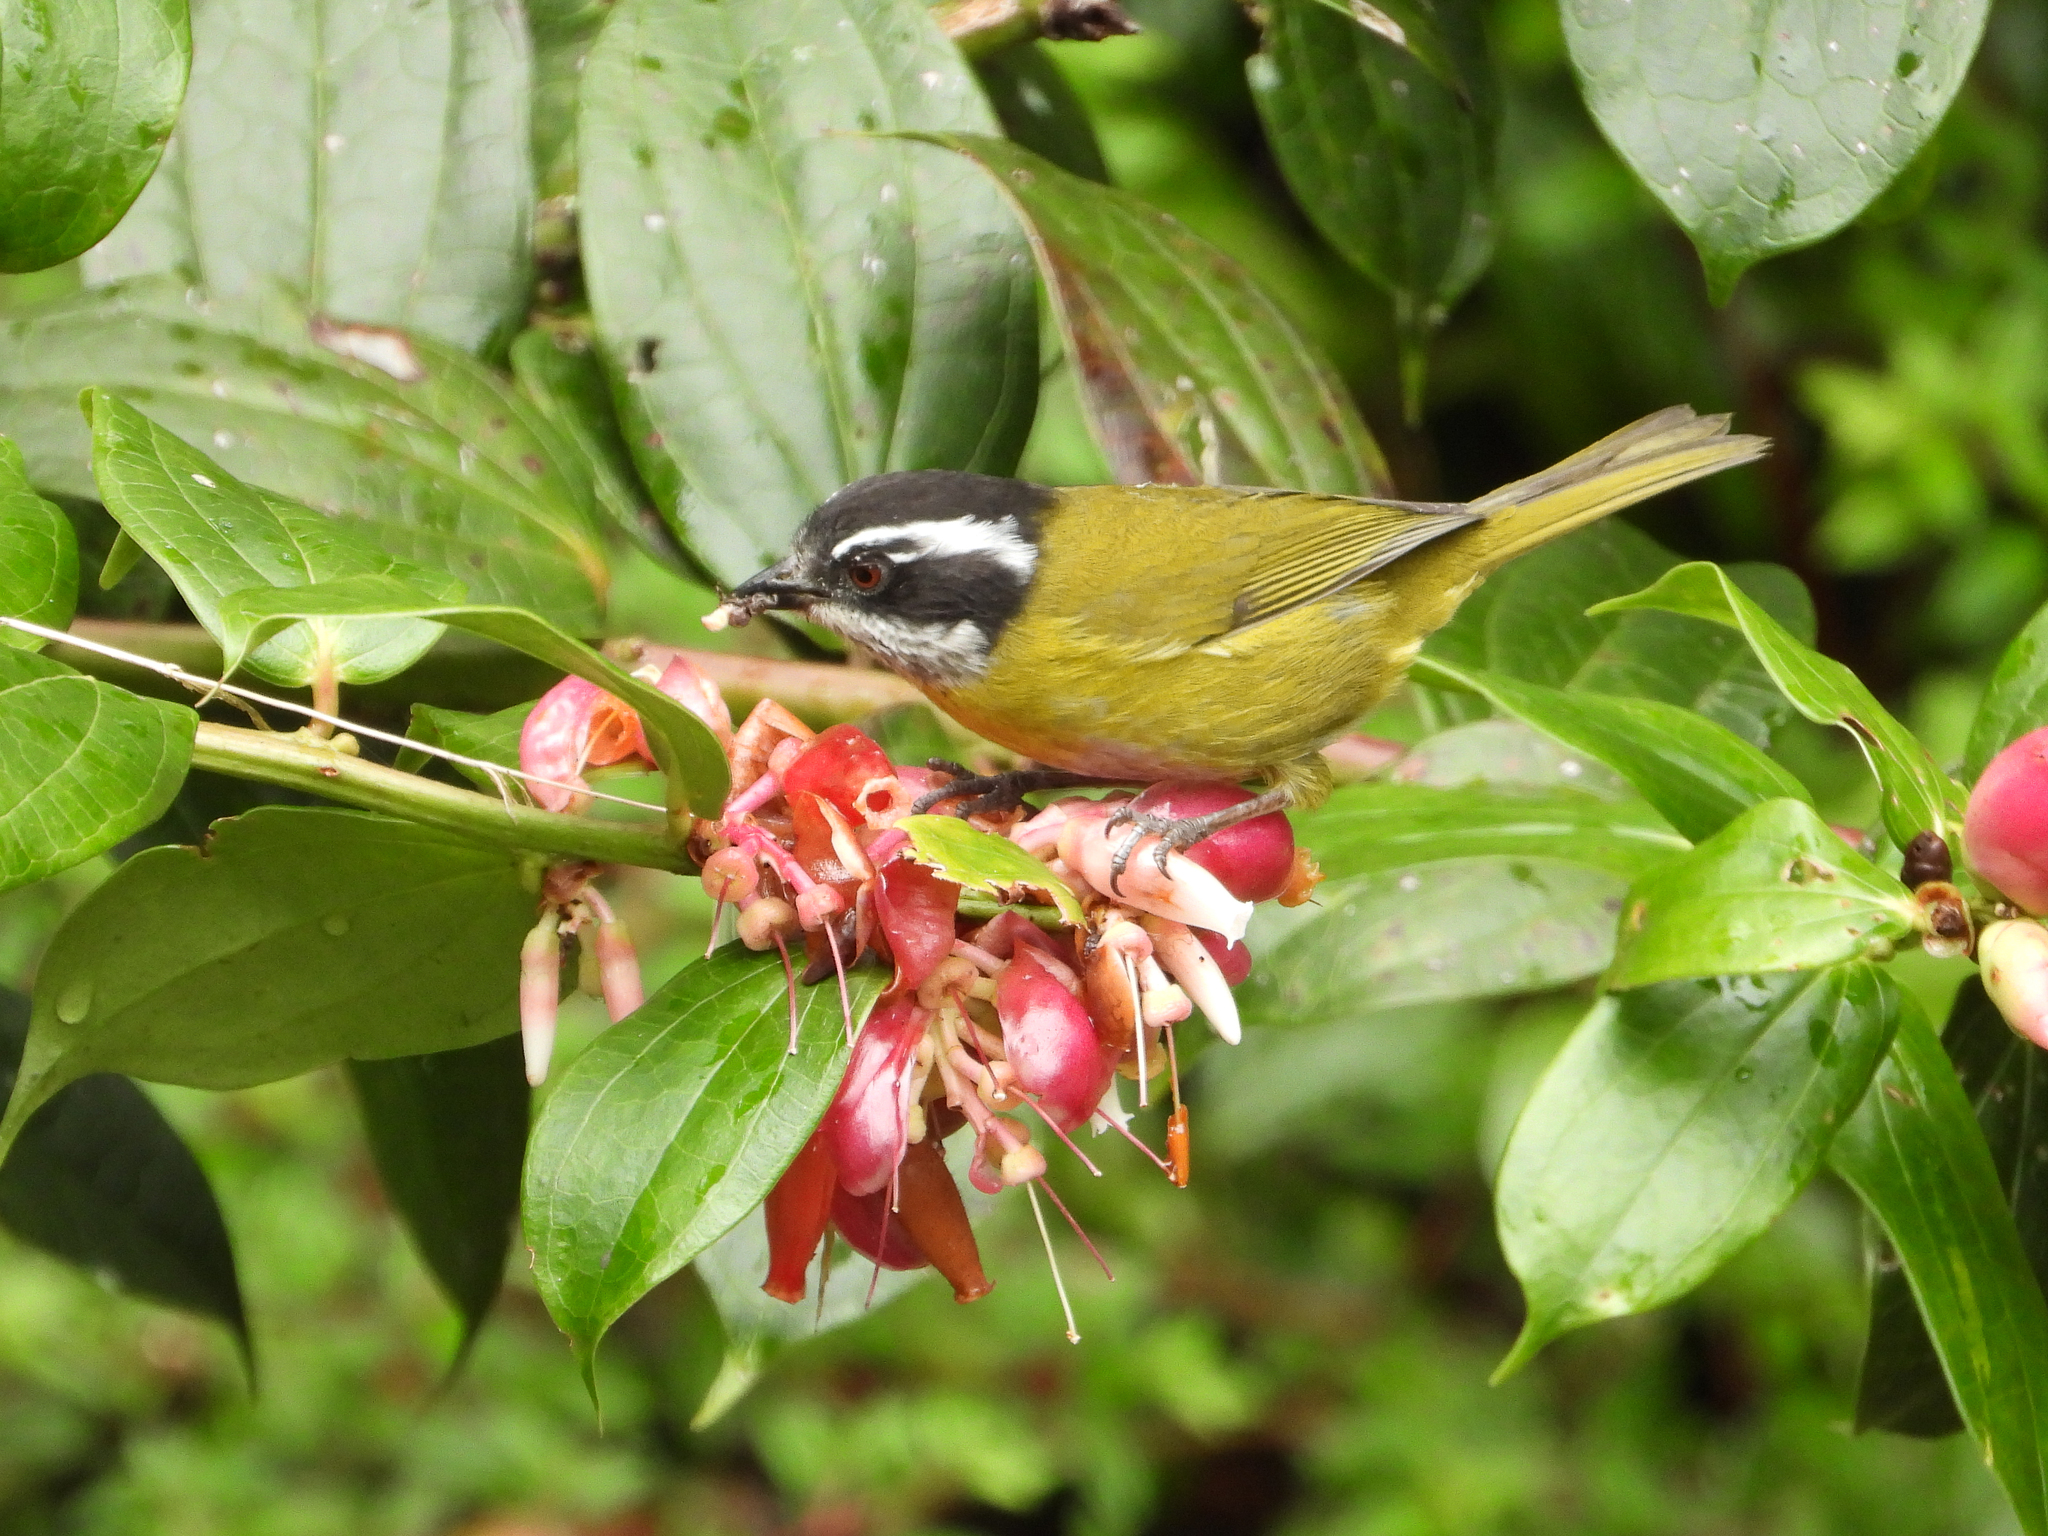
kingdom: Animalia
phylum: Chordata
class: Aves
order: Passeriformes
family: Passerellidae
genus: Chlorospingus
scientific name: Chlorospingus pileatus
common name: Sooty-capped bush-tanager
